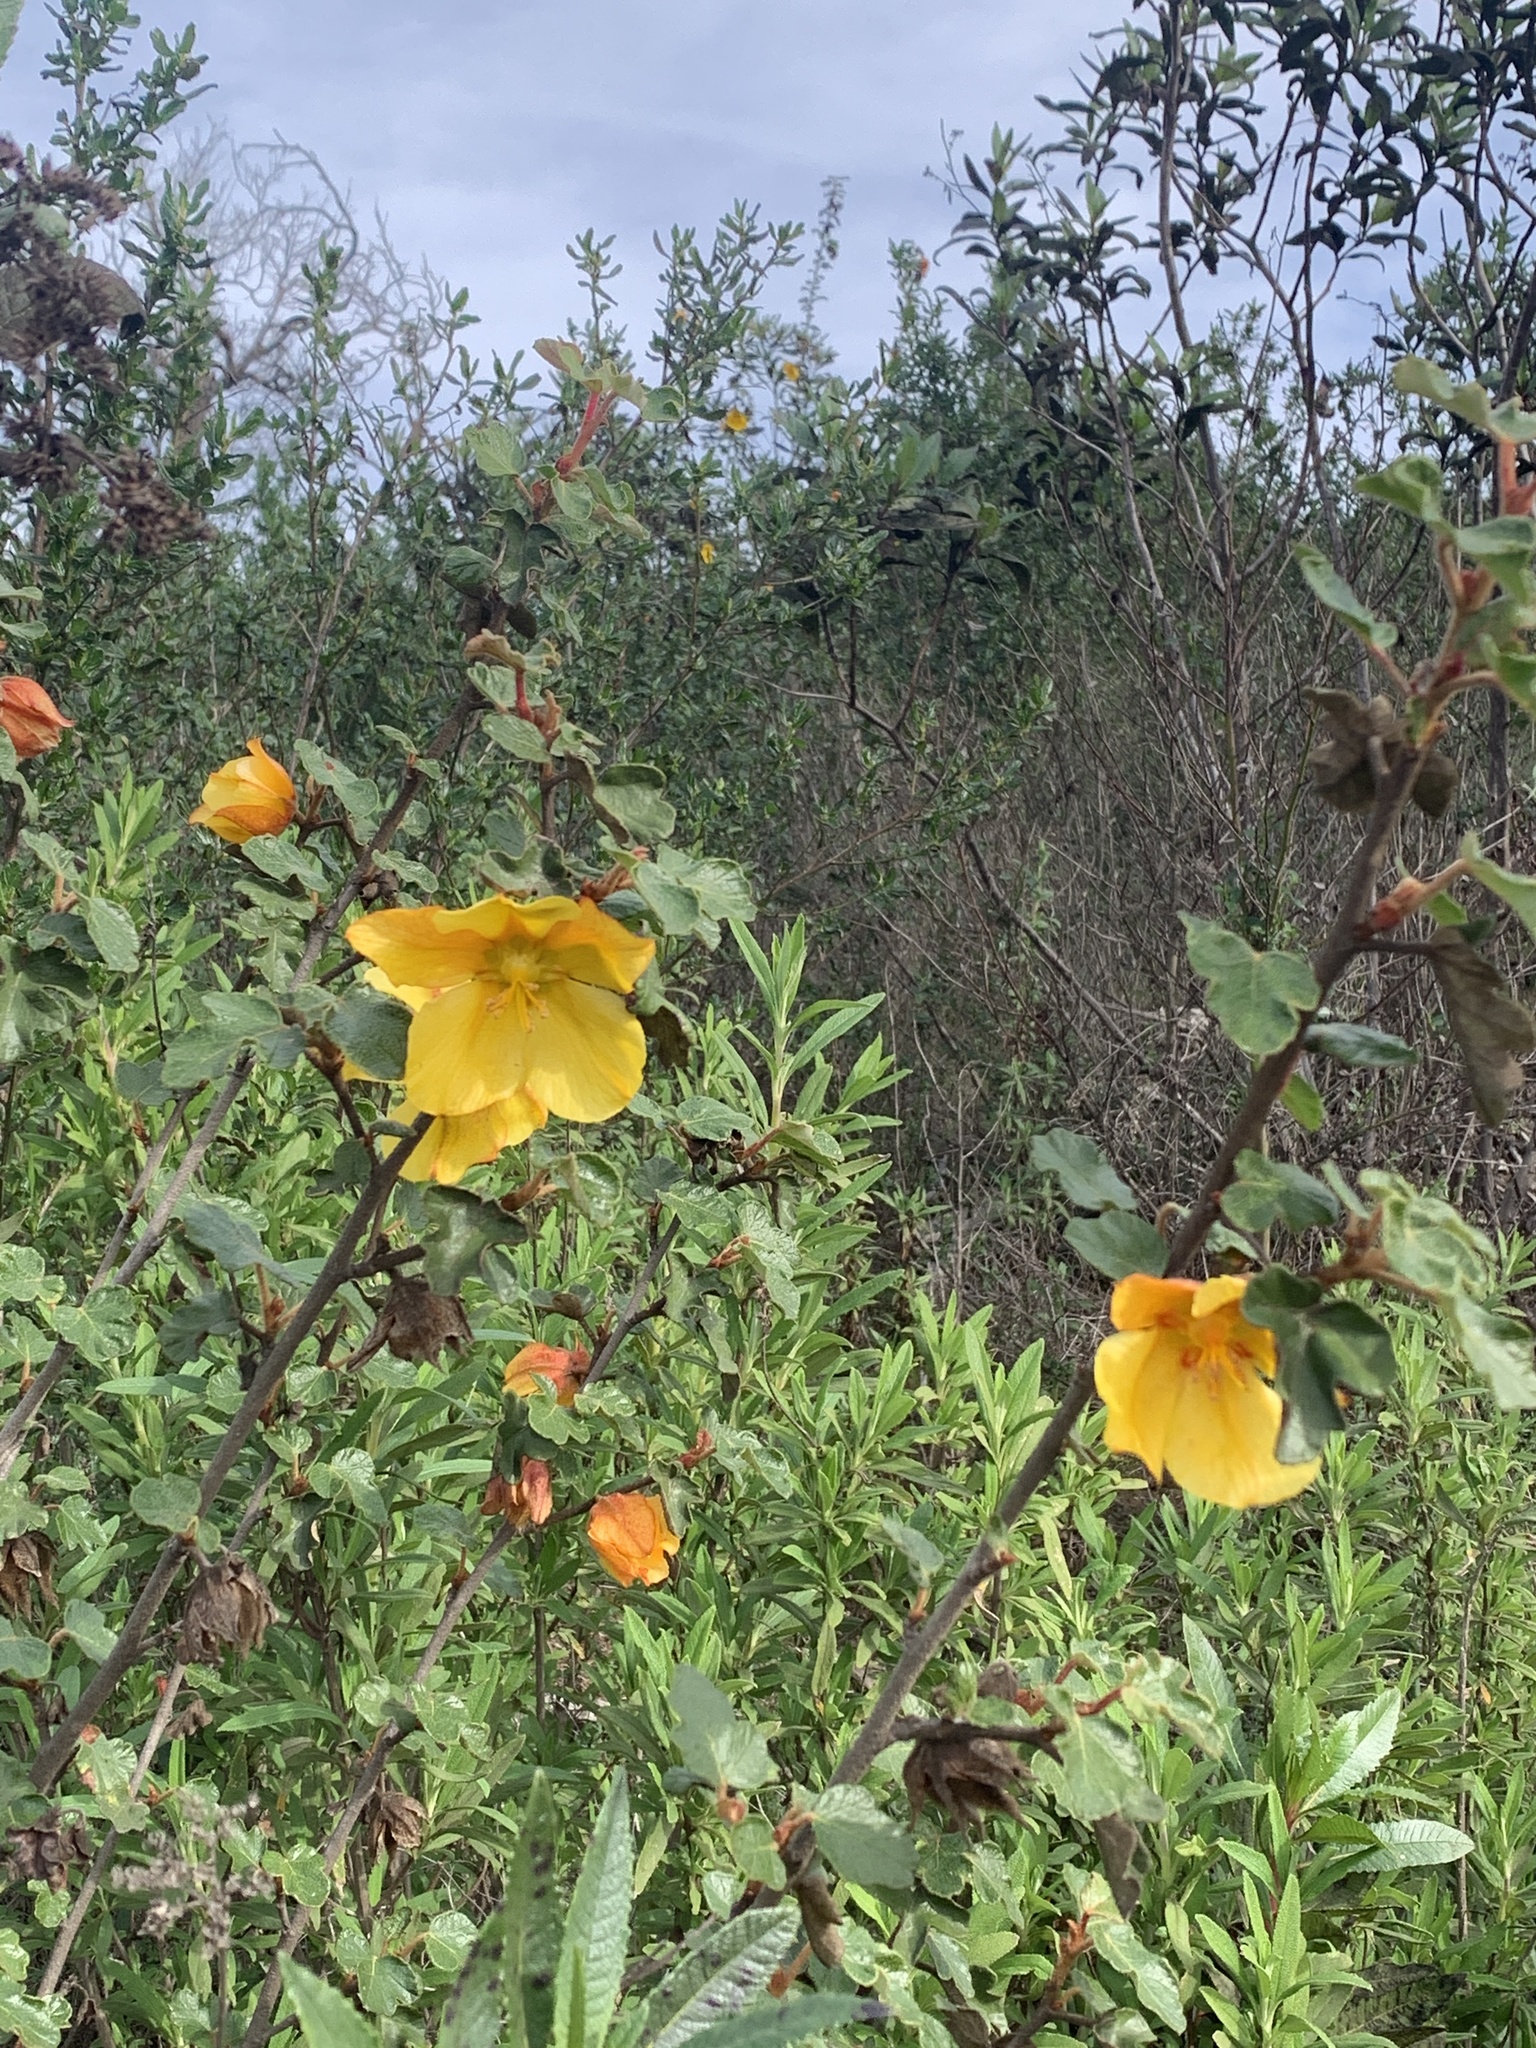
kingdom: Plantae
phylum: Tracheophyta
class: Magnoliopsida
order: Malvales
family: Malvaceae
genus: Fremontodendron
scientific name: Fremontodendron californicum
